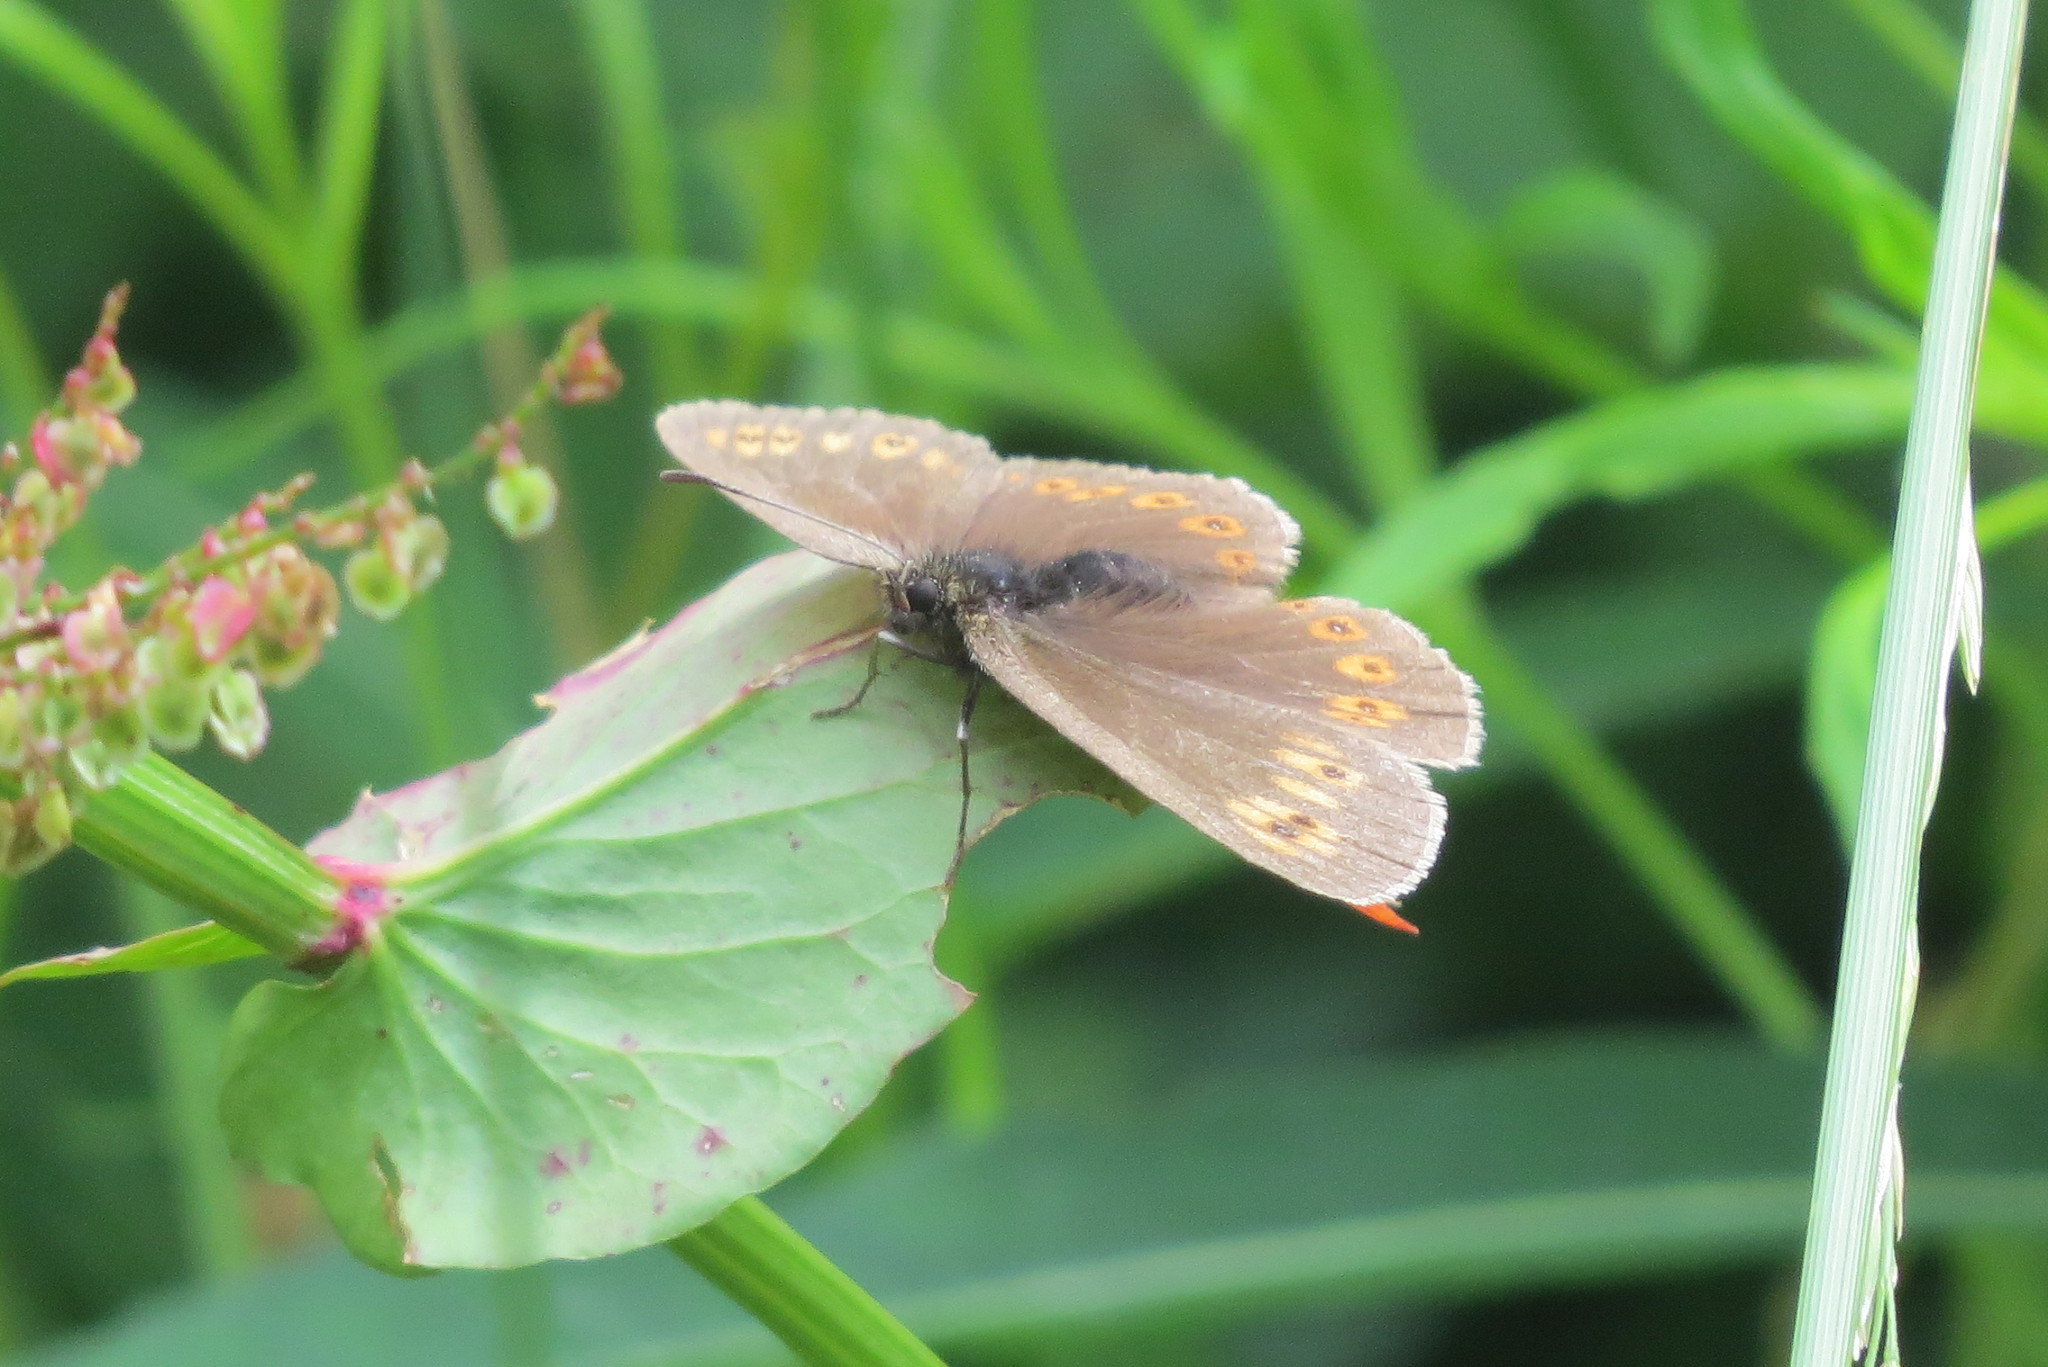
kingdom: Animalia
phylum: Arthropoda
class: Insecta
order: Lepidoptera
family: Nymphalidae
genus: Erebia
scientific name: Erebia alberganus
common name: Almond-eyed ringlet
